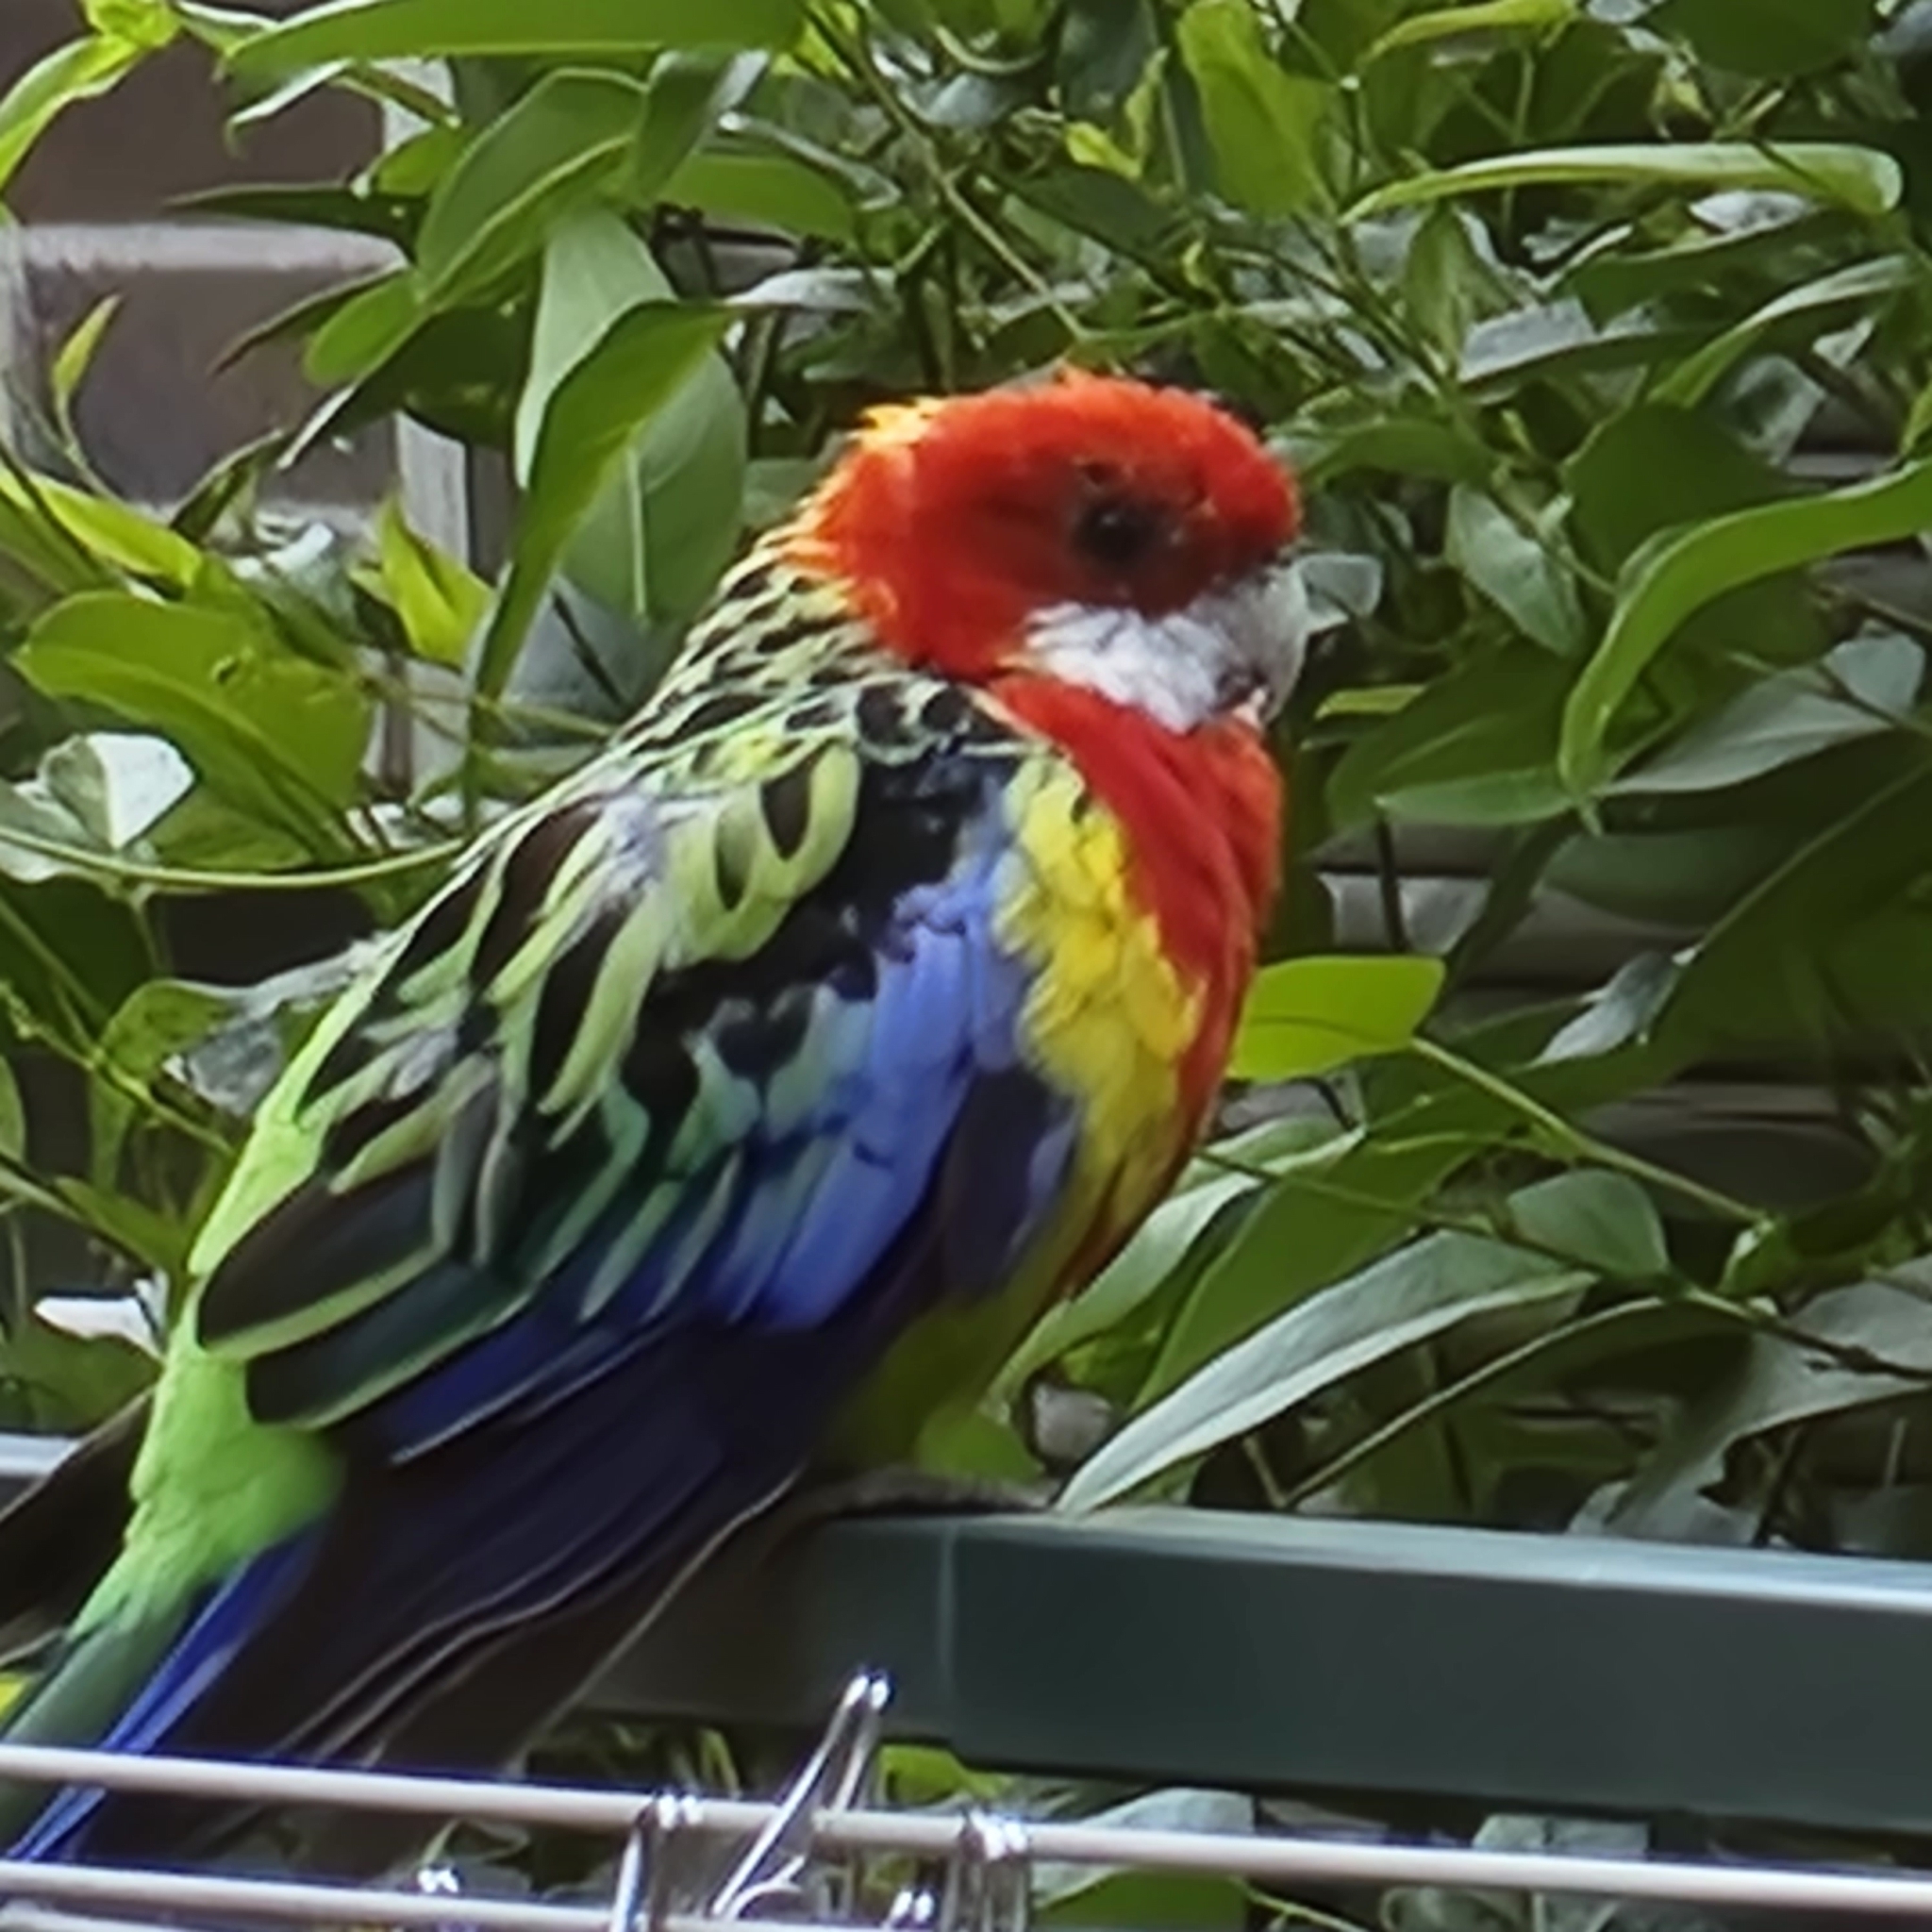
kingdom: Animalia
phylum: Chordata
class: Aves
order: Psittaciformes
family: Psittacidae
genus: Platycercus
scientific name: Platycercus eximius
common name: Eastern rosella
